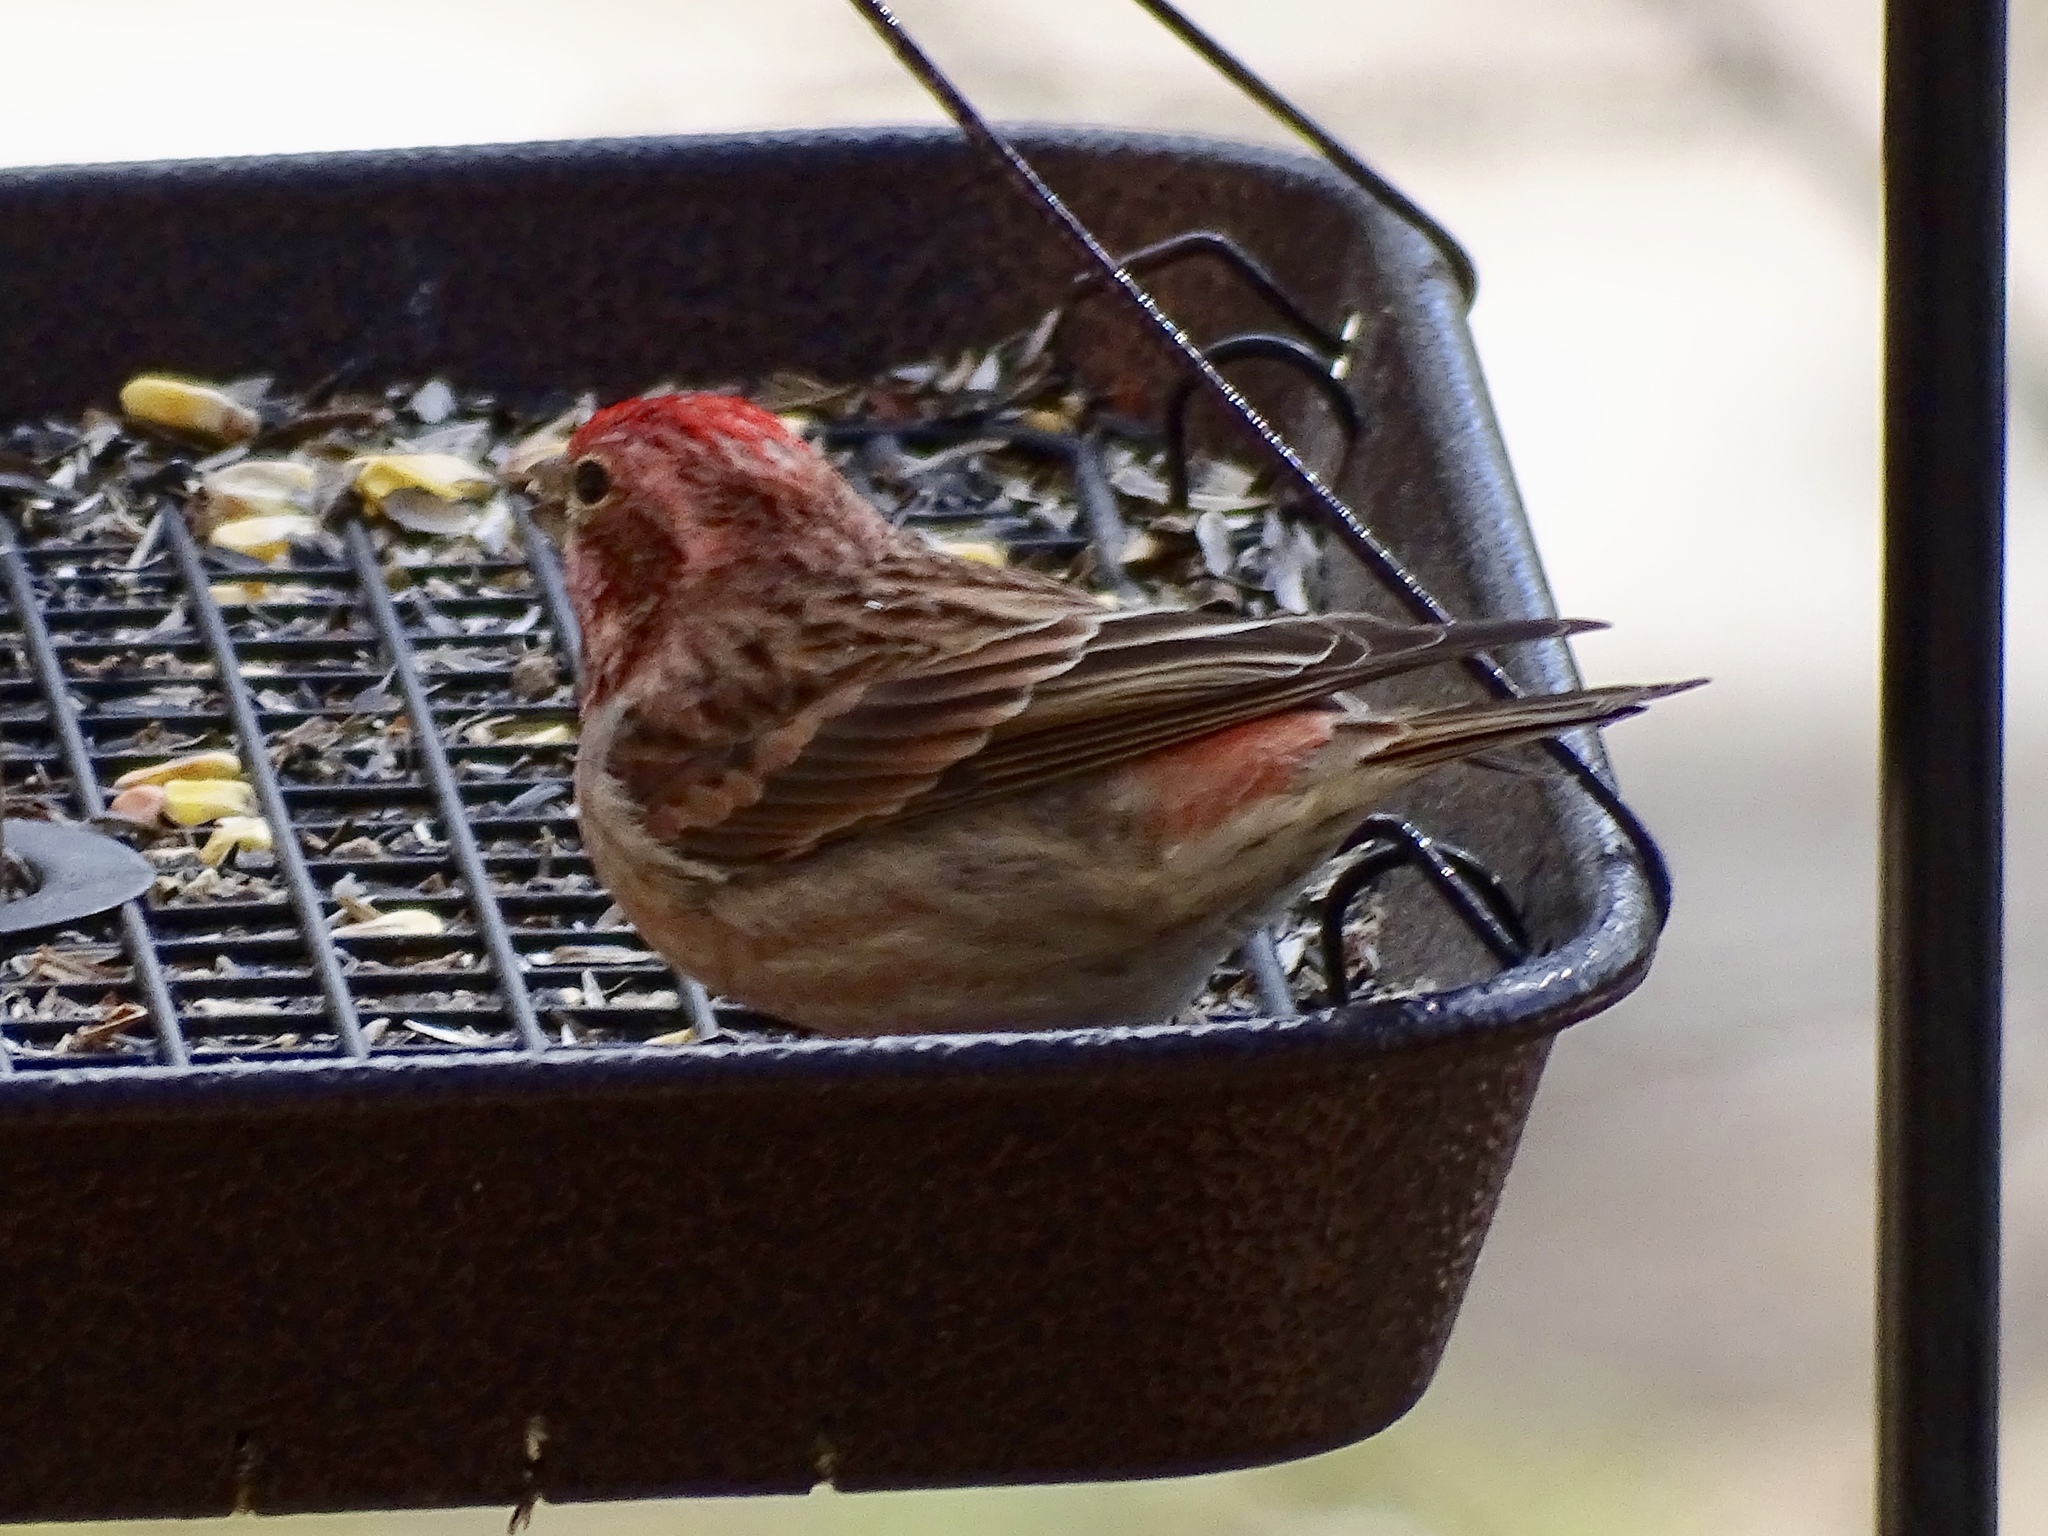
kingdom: Animalia
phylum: Chordata
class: Aves
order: Passeriformes
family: Fringillidae
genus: Haemorhous
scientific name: Haemorhous cassinii
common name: Cassin's finch
